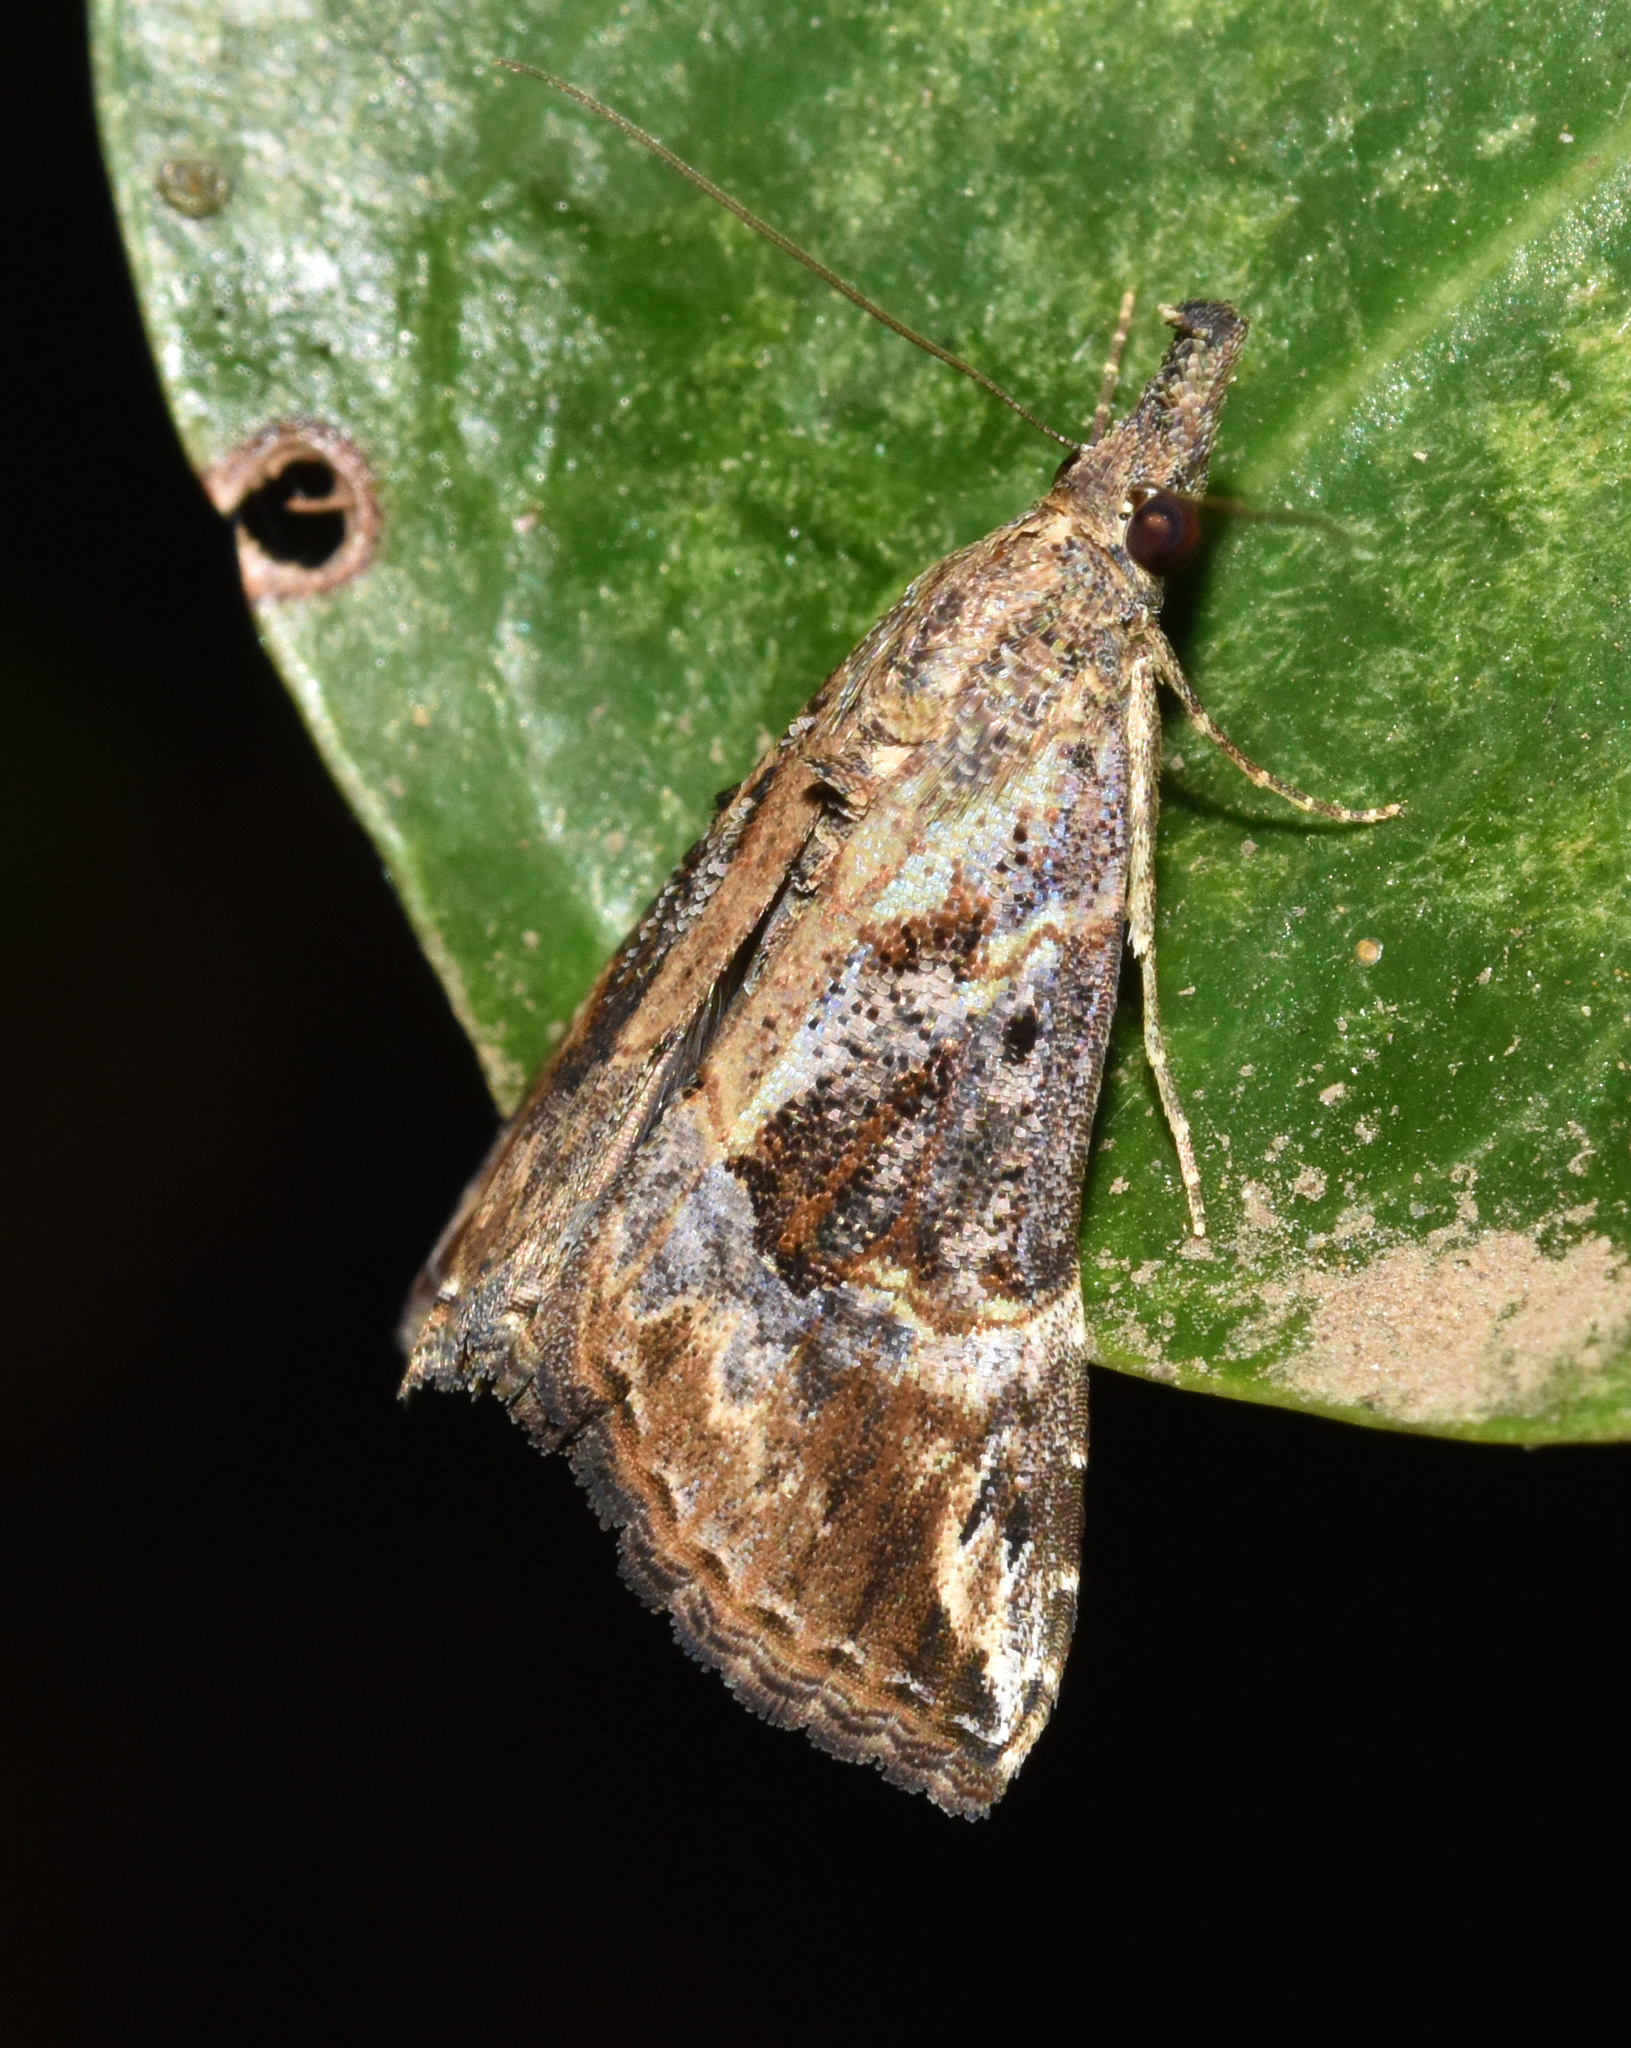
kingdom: Animalia
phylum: Arthropoda
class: Insecta
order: Lepidoptera
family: Erebidae
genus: Hypena
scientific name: Hypena commixtalis
